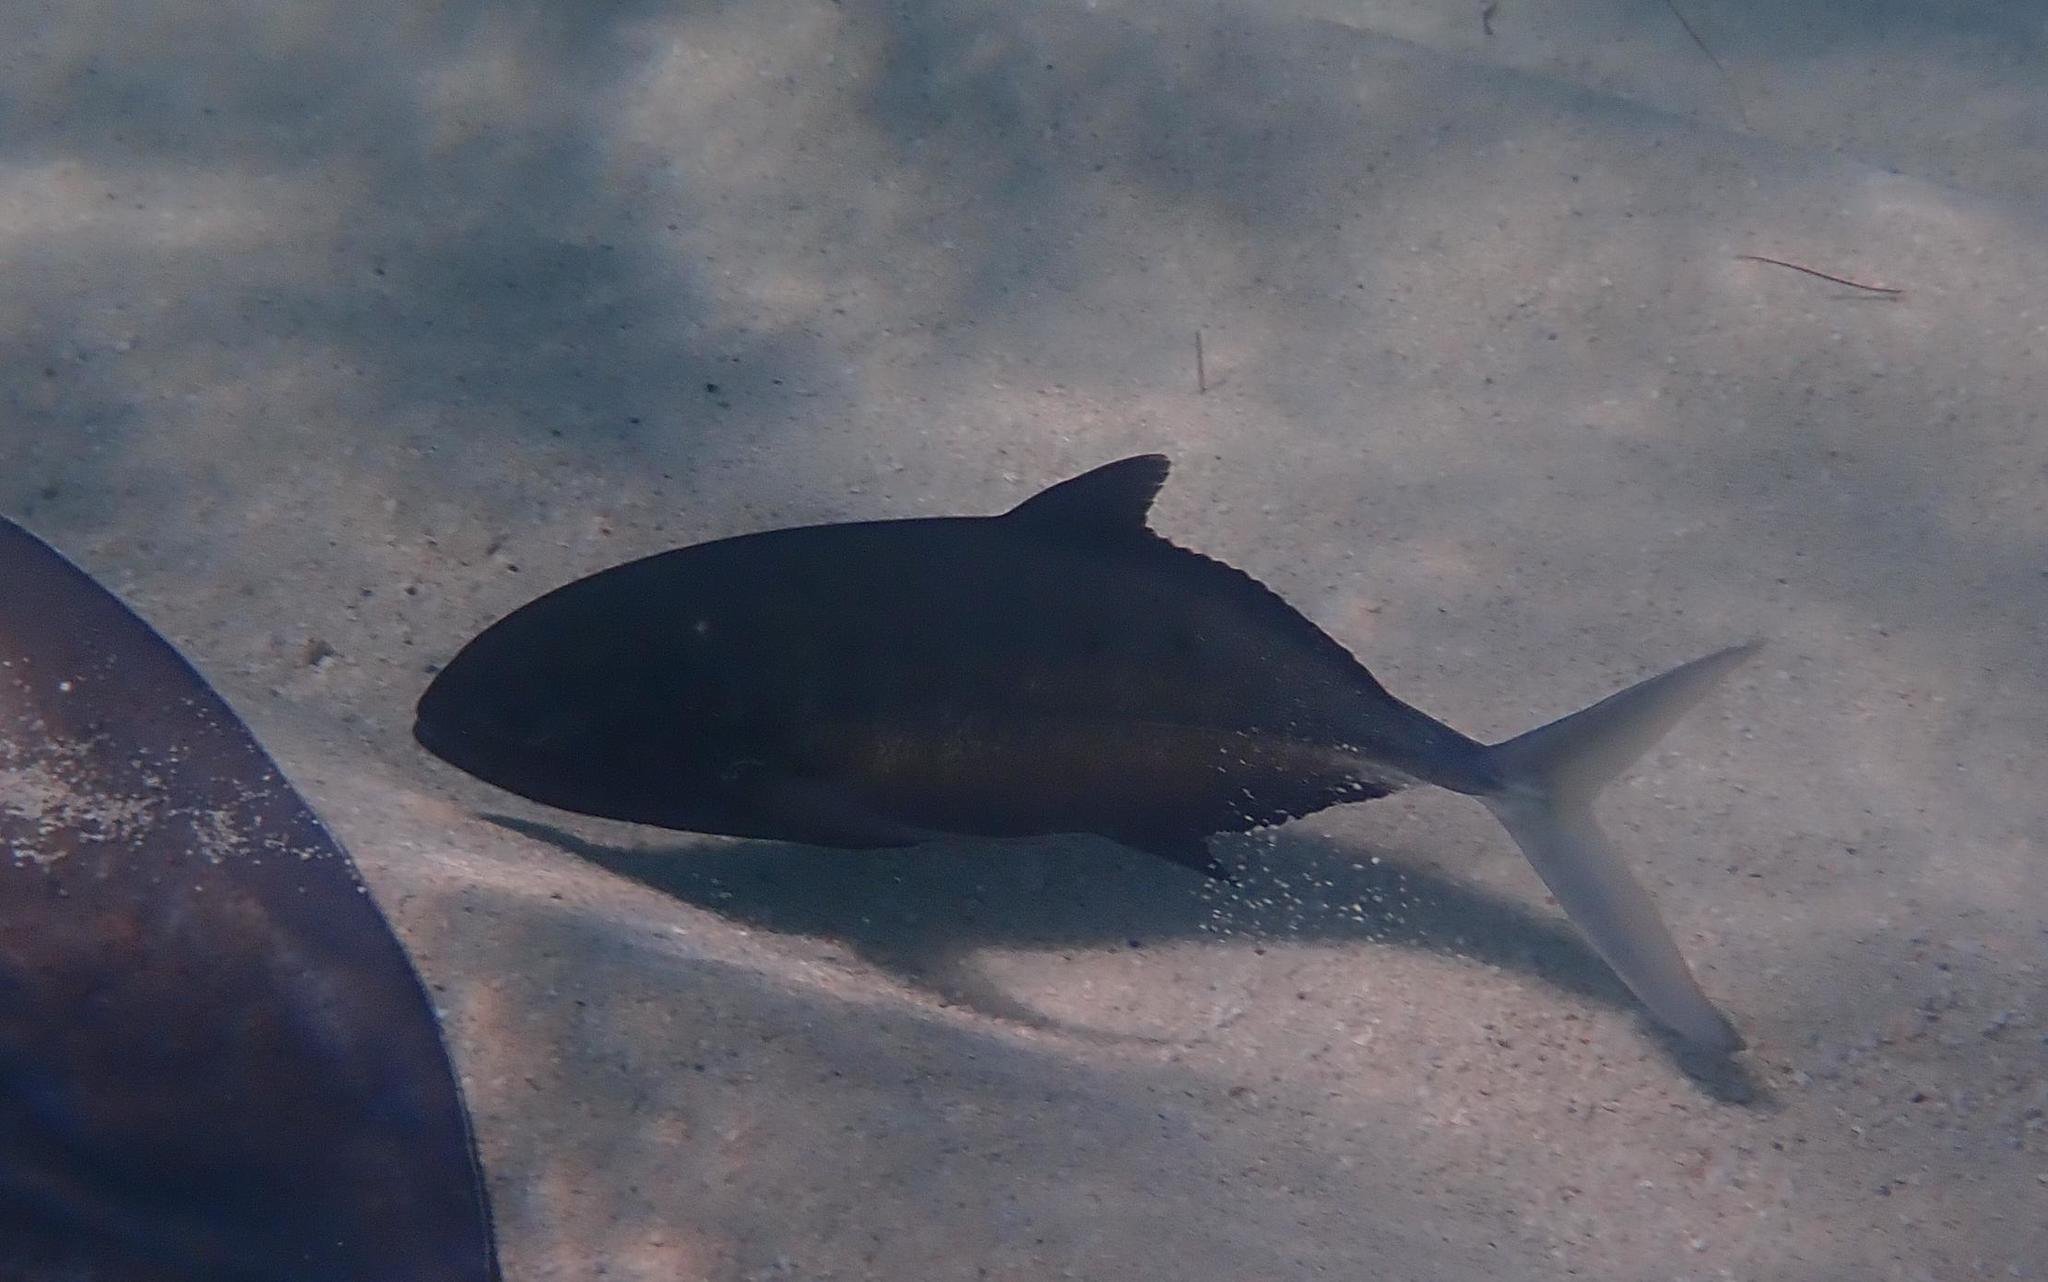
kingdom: Animalia
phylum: Chordata
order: Perciformes
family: Carangidae
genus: Caranx
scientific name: Caranx ruber
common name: Bar jack
